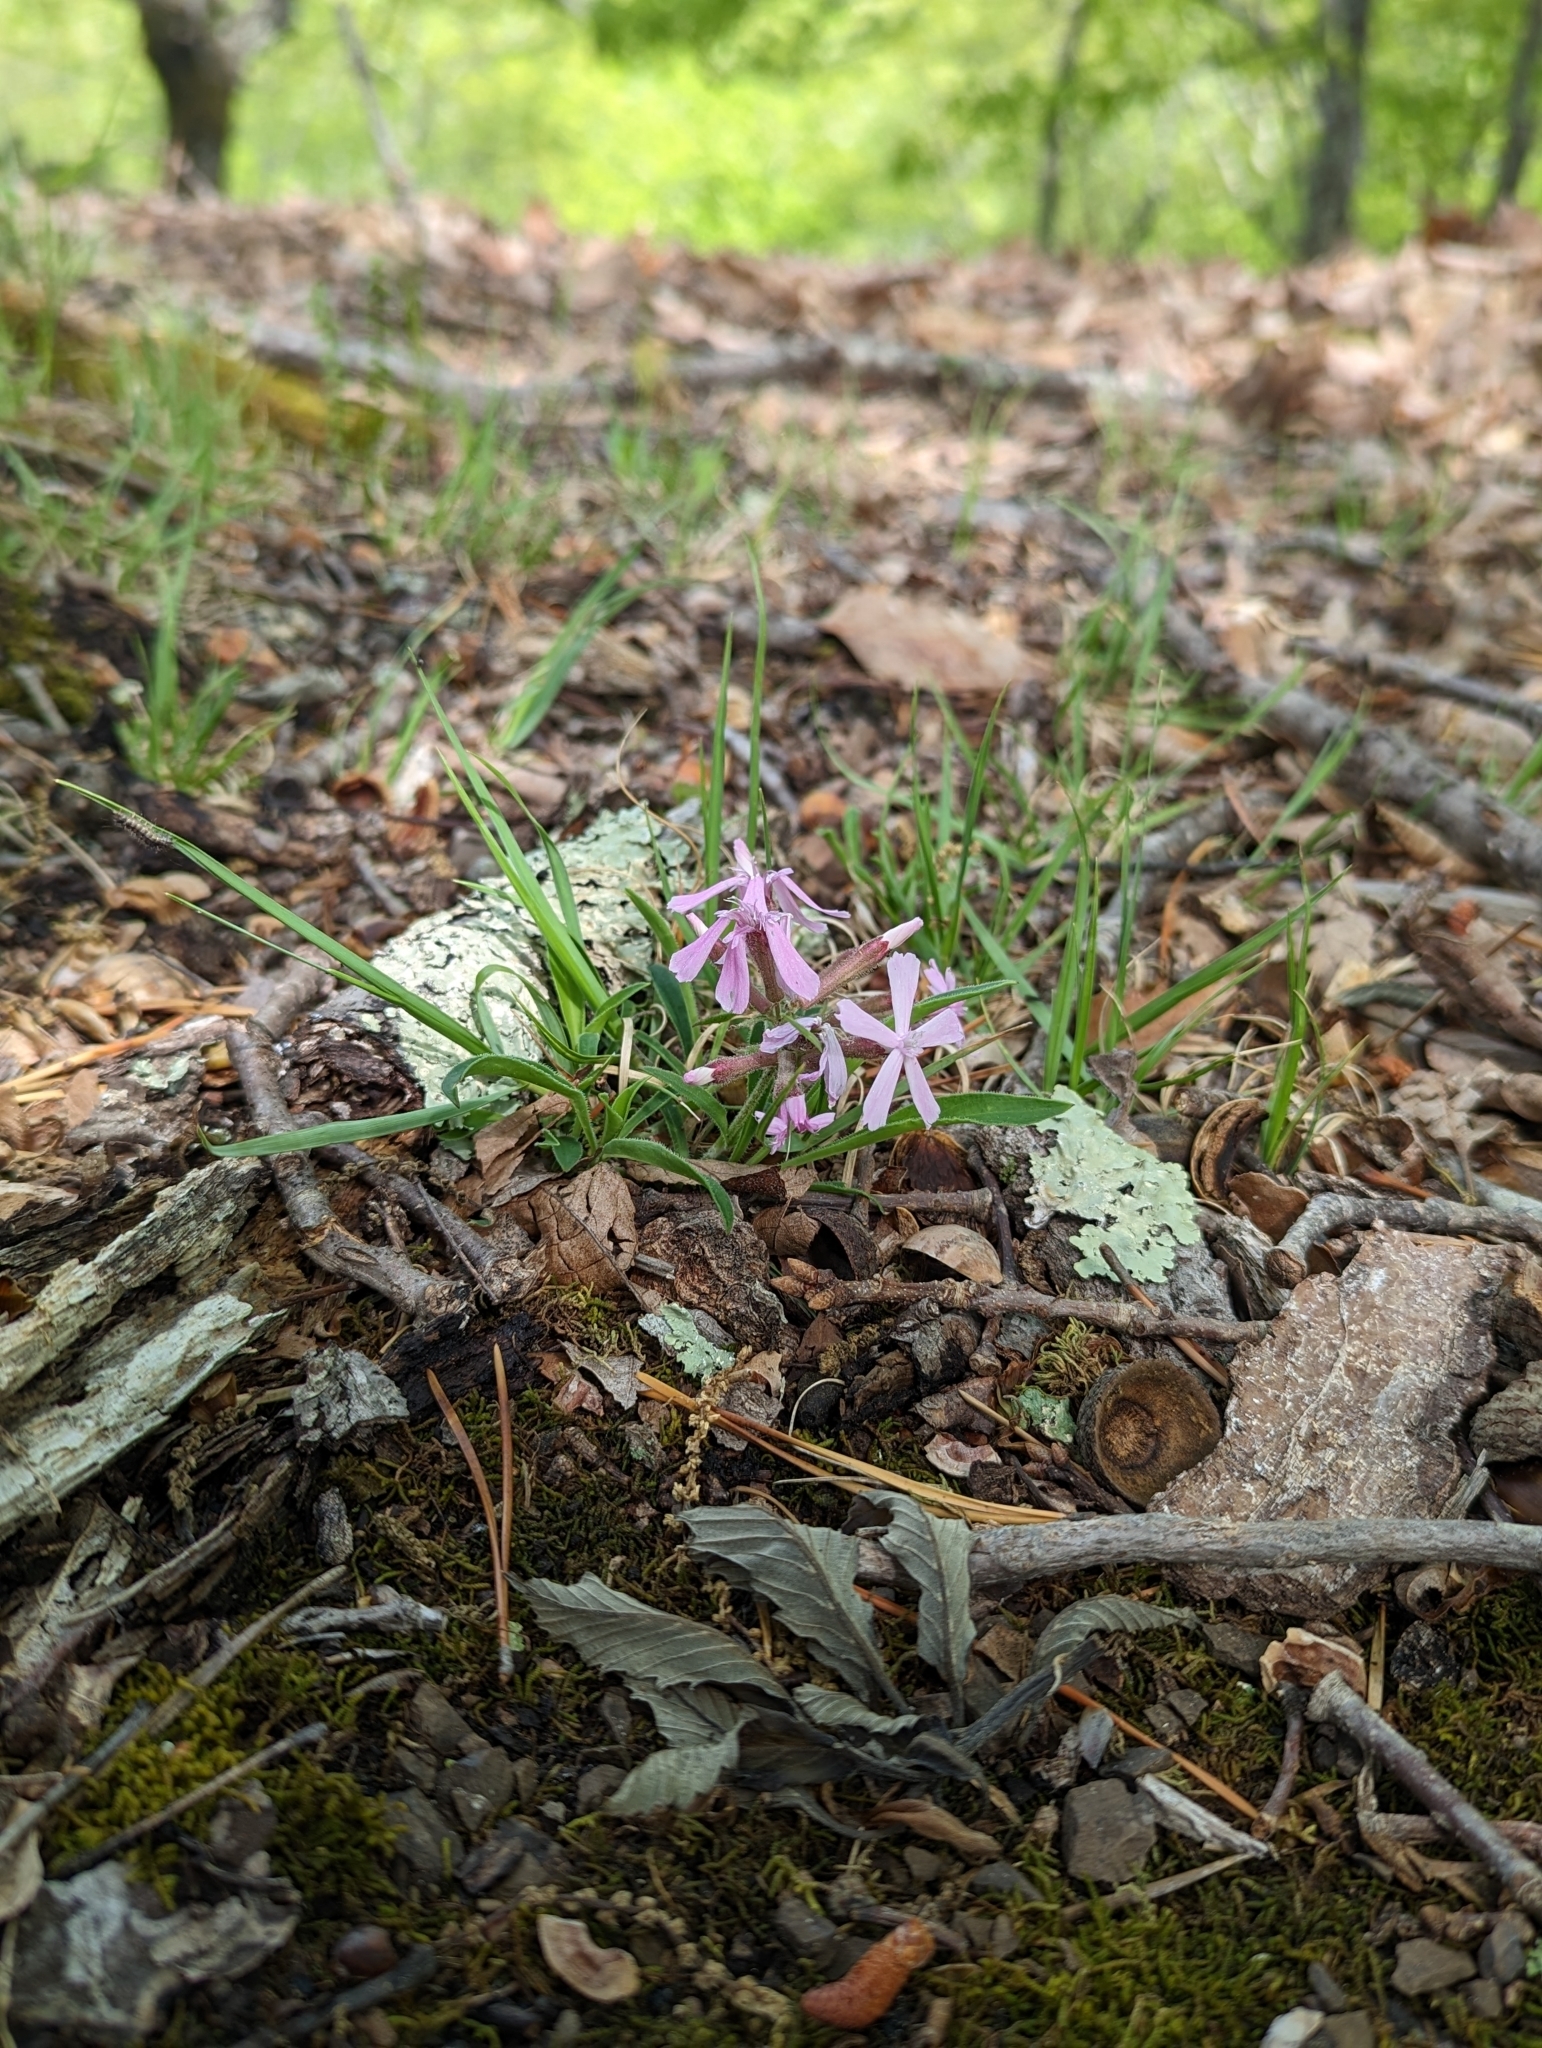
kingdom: Plantae
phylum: Tracheophyta
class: Magnoliopsida
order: Caryophyllales
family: Caryophyllaceae
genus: Silene
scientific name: Silene caroliniana
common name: Sticky catchfly
